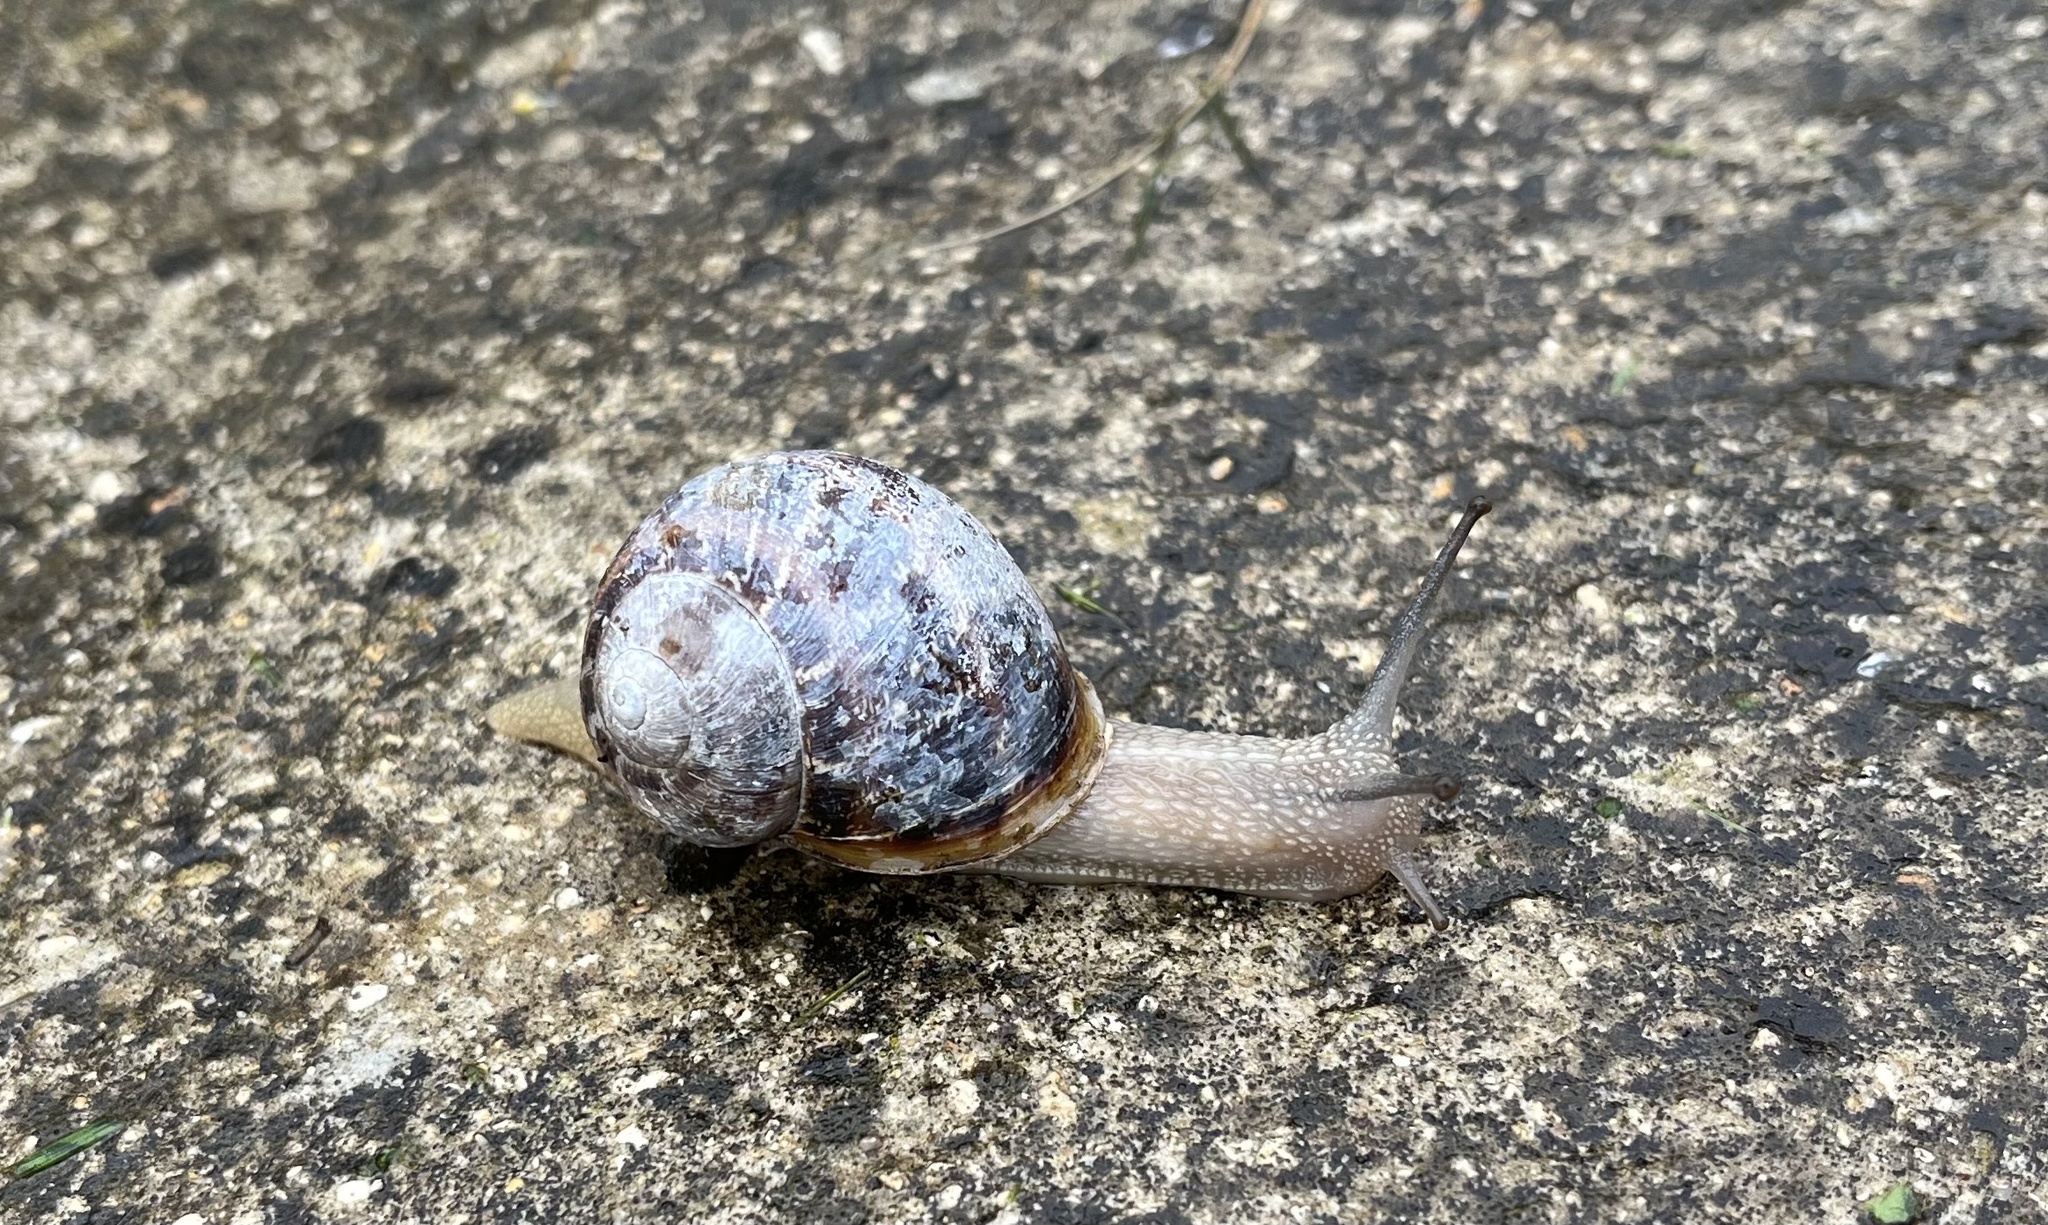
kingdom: Animalia
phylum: Mollusca
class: Gastropoda
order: Stylommatophora
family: Helicidae
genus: Cornu
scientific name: Cornu aspersum
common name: Brown garden snail
